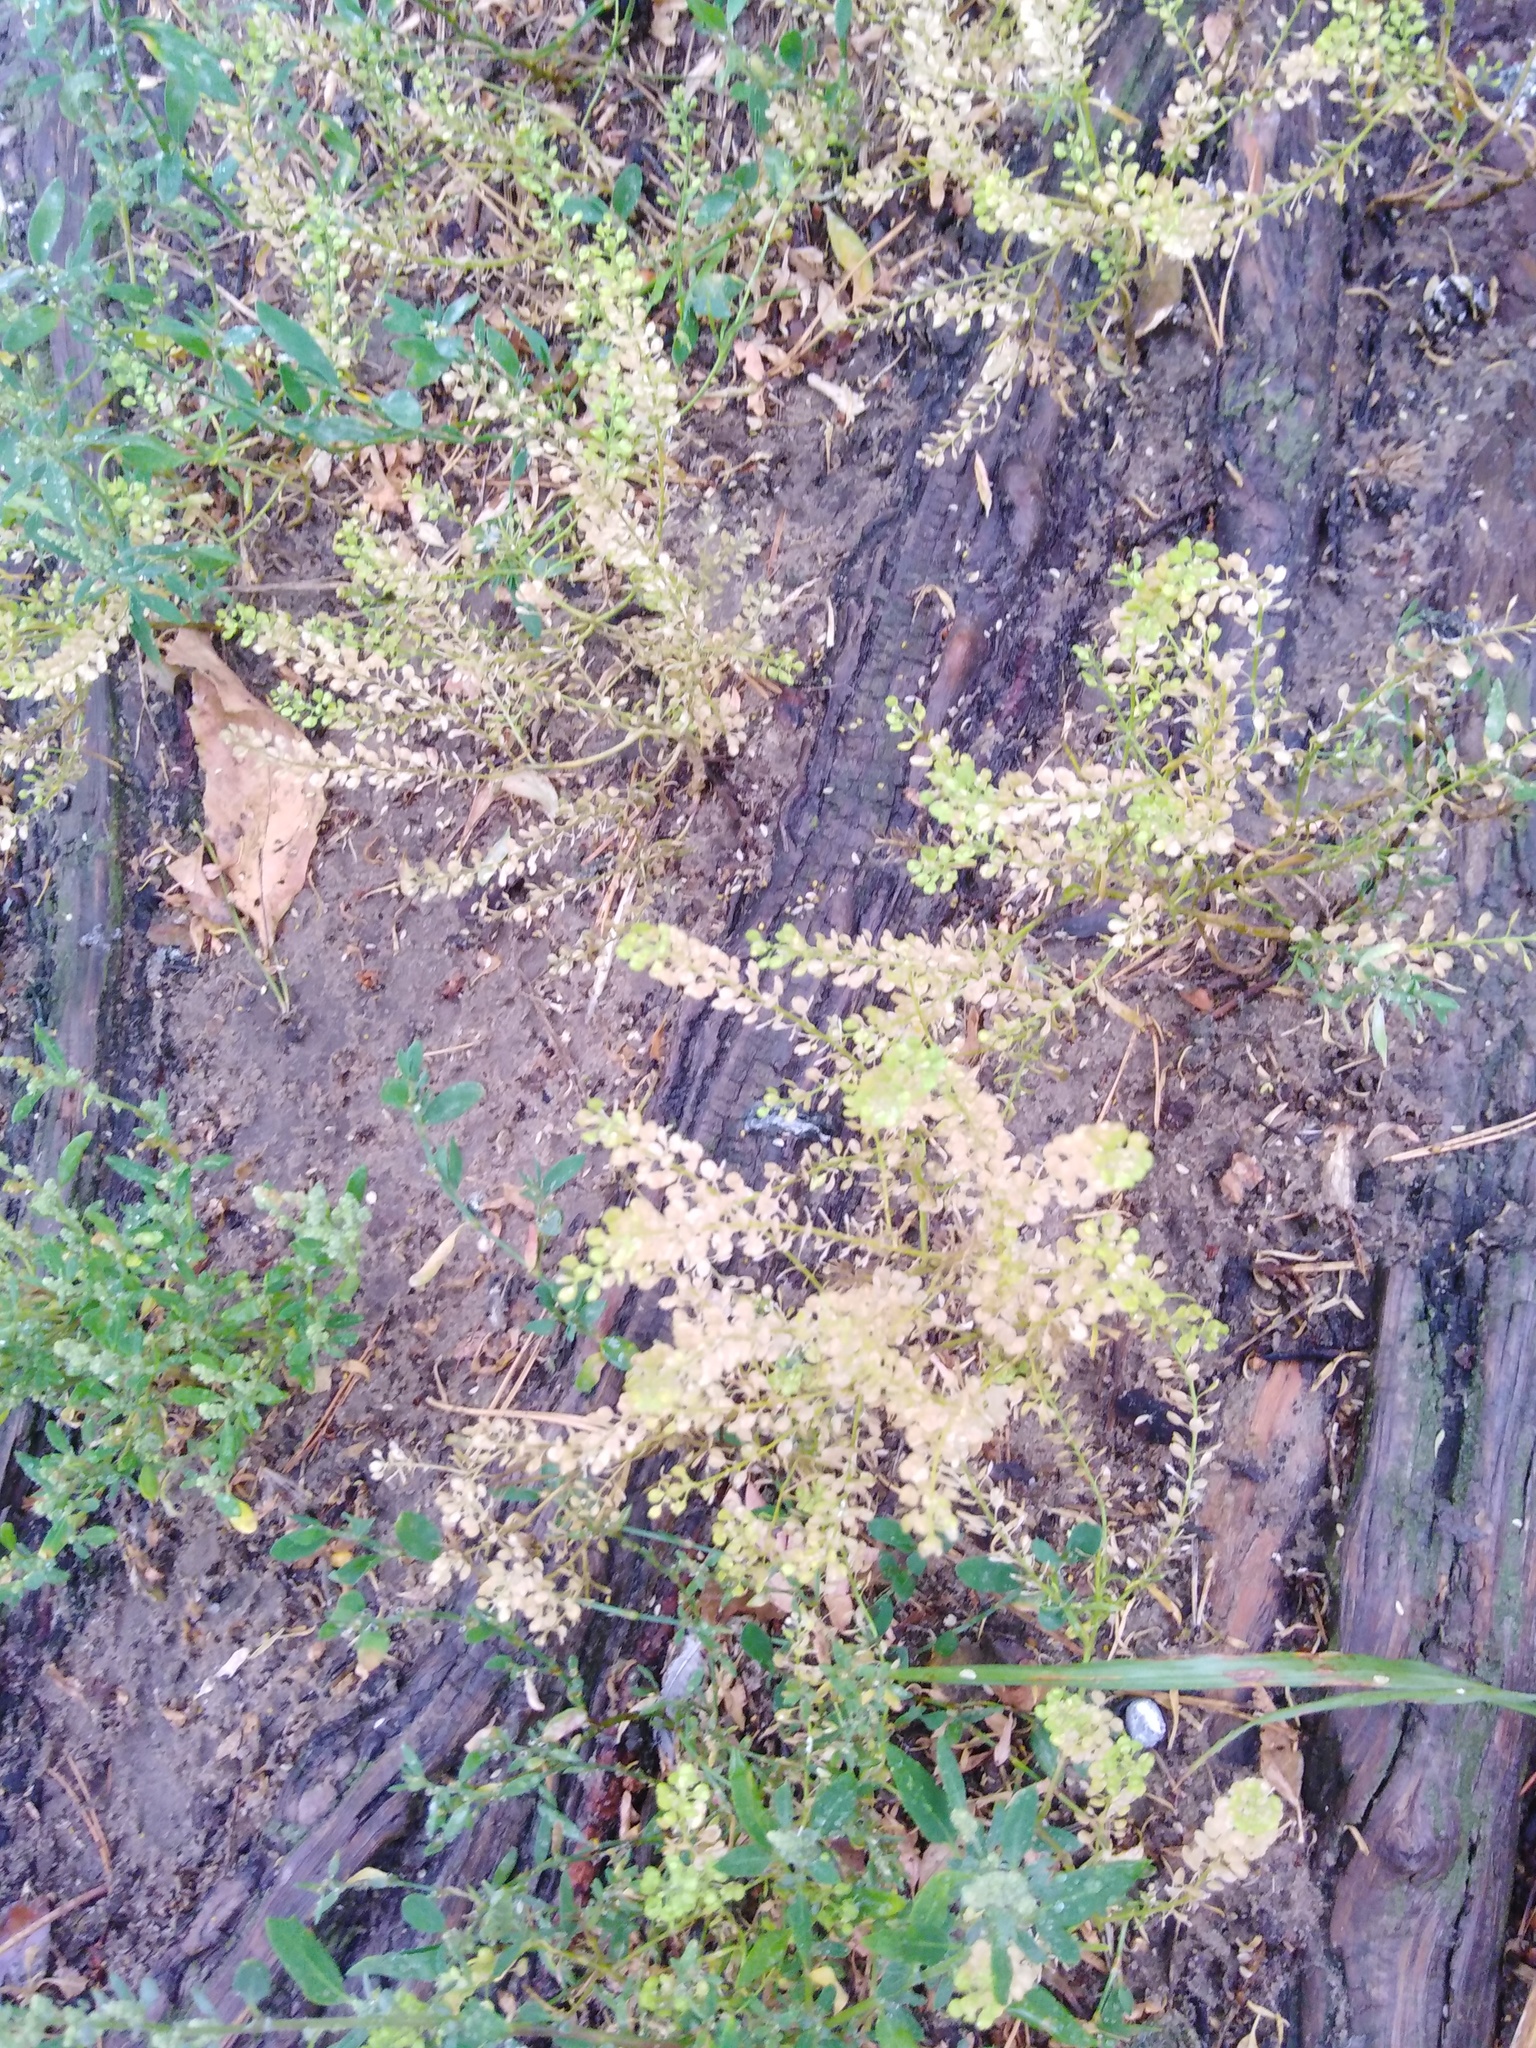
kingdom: Plantae
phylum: Tracheophyta
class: Magnoliopsida
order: Brassicales
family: Brassicaceae
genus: Lepidium
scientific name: Lepidium densiflorum
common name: Miner's pepperwort
